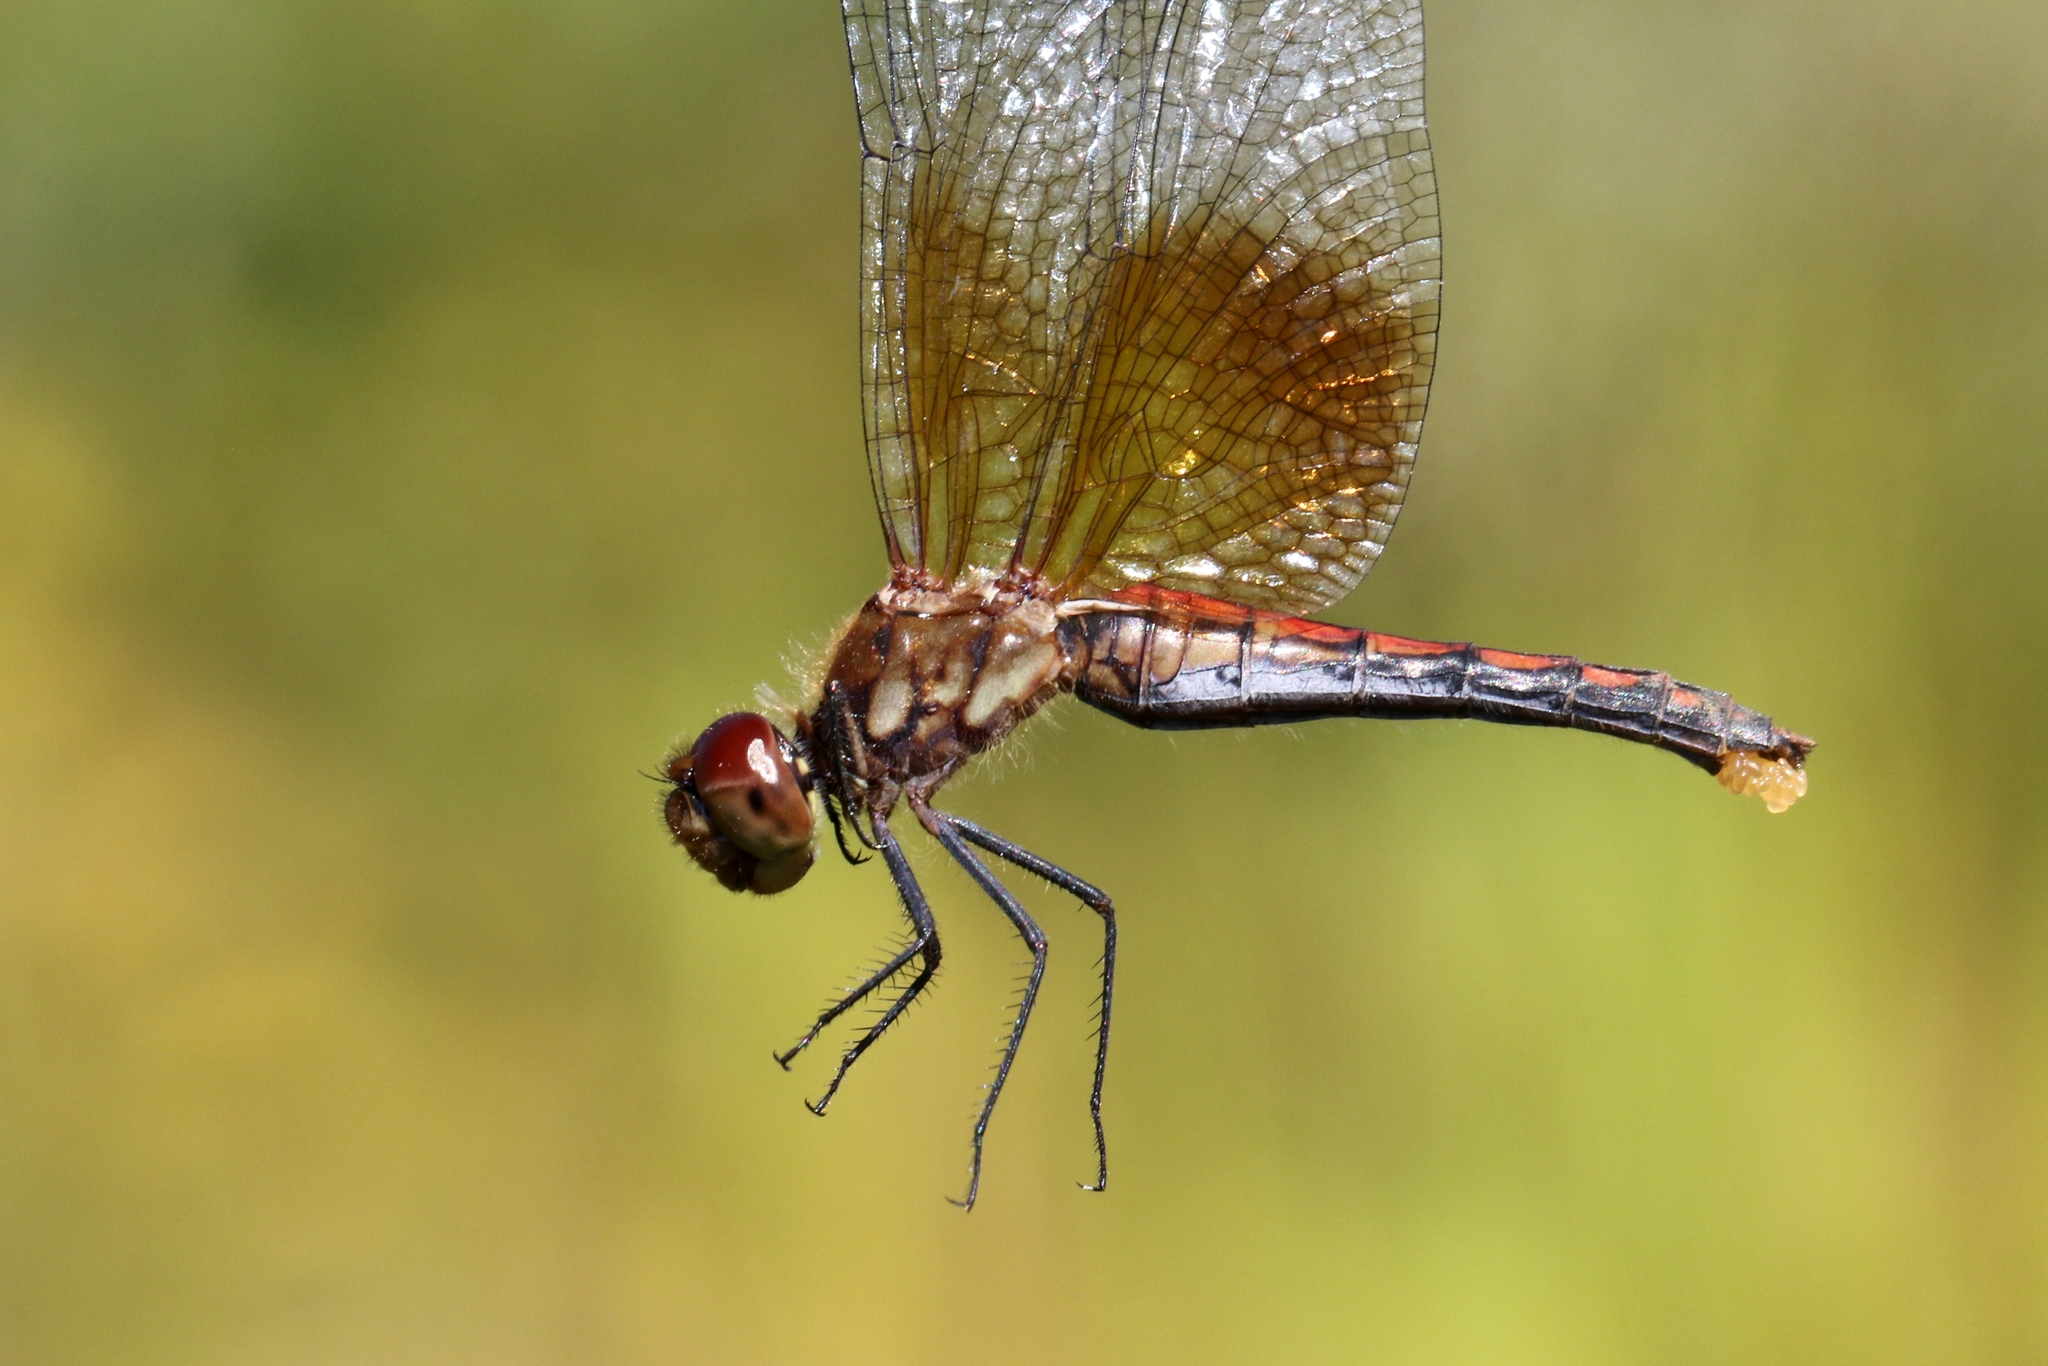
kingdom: Animalia
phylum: Arthropoda
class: Insecta
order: Odonata
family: Libellulidae
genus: Sympetrum
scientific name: Sympetrum semicinctum
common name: Band-winged meadowhawk
